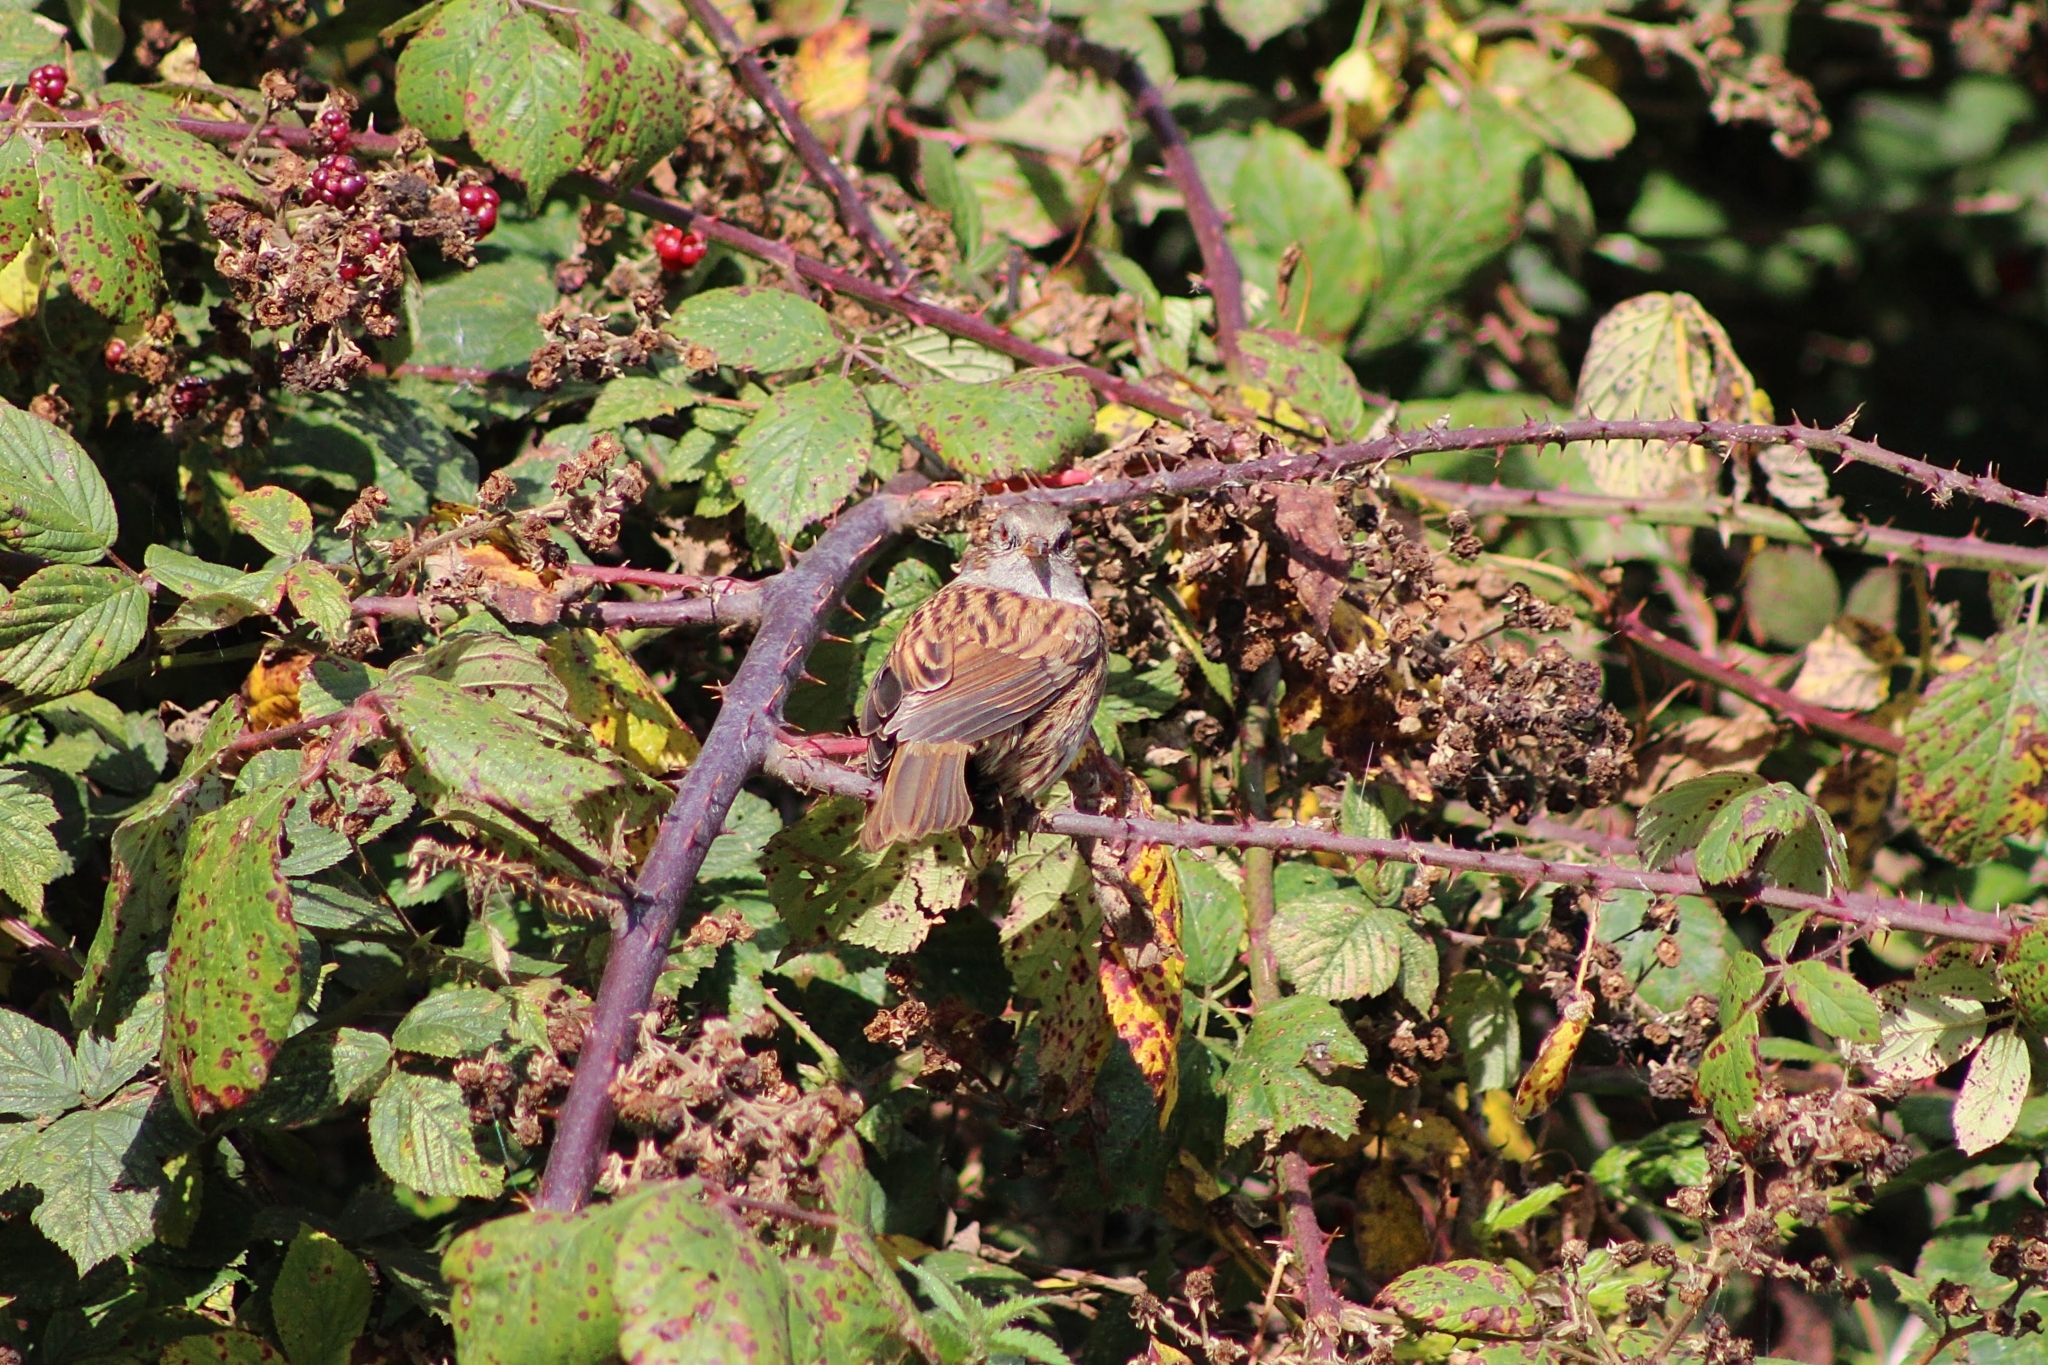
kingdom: Animalia
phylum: Chordata
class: Aves
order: Passeriformes
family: Prunellidae
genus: Prunella
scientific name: Prunella modularis
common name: Dunnock
